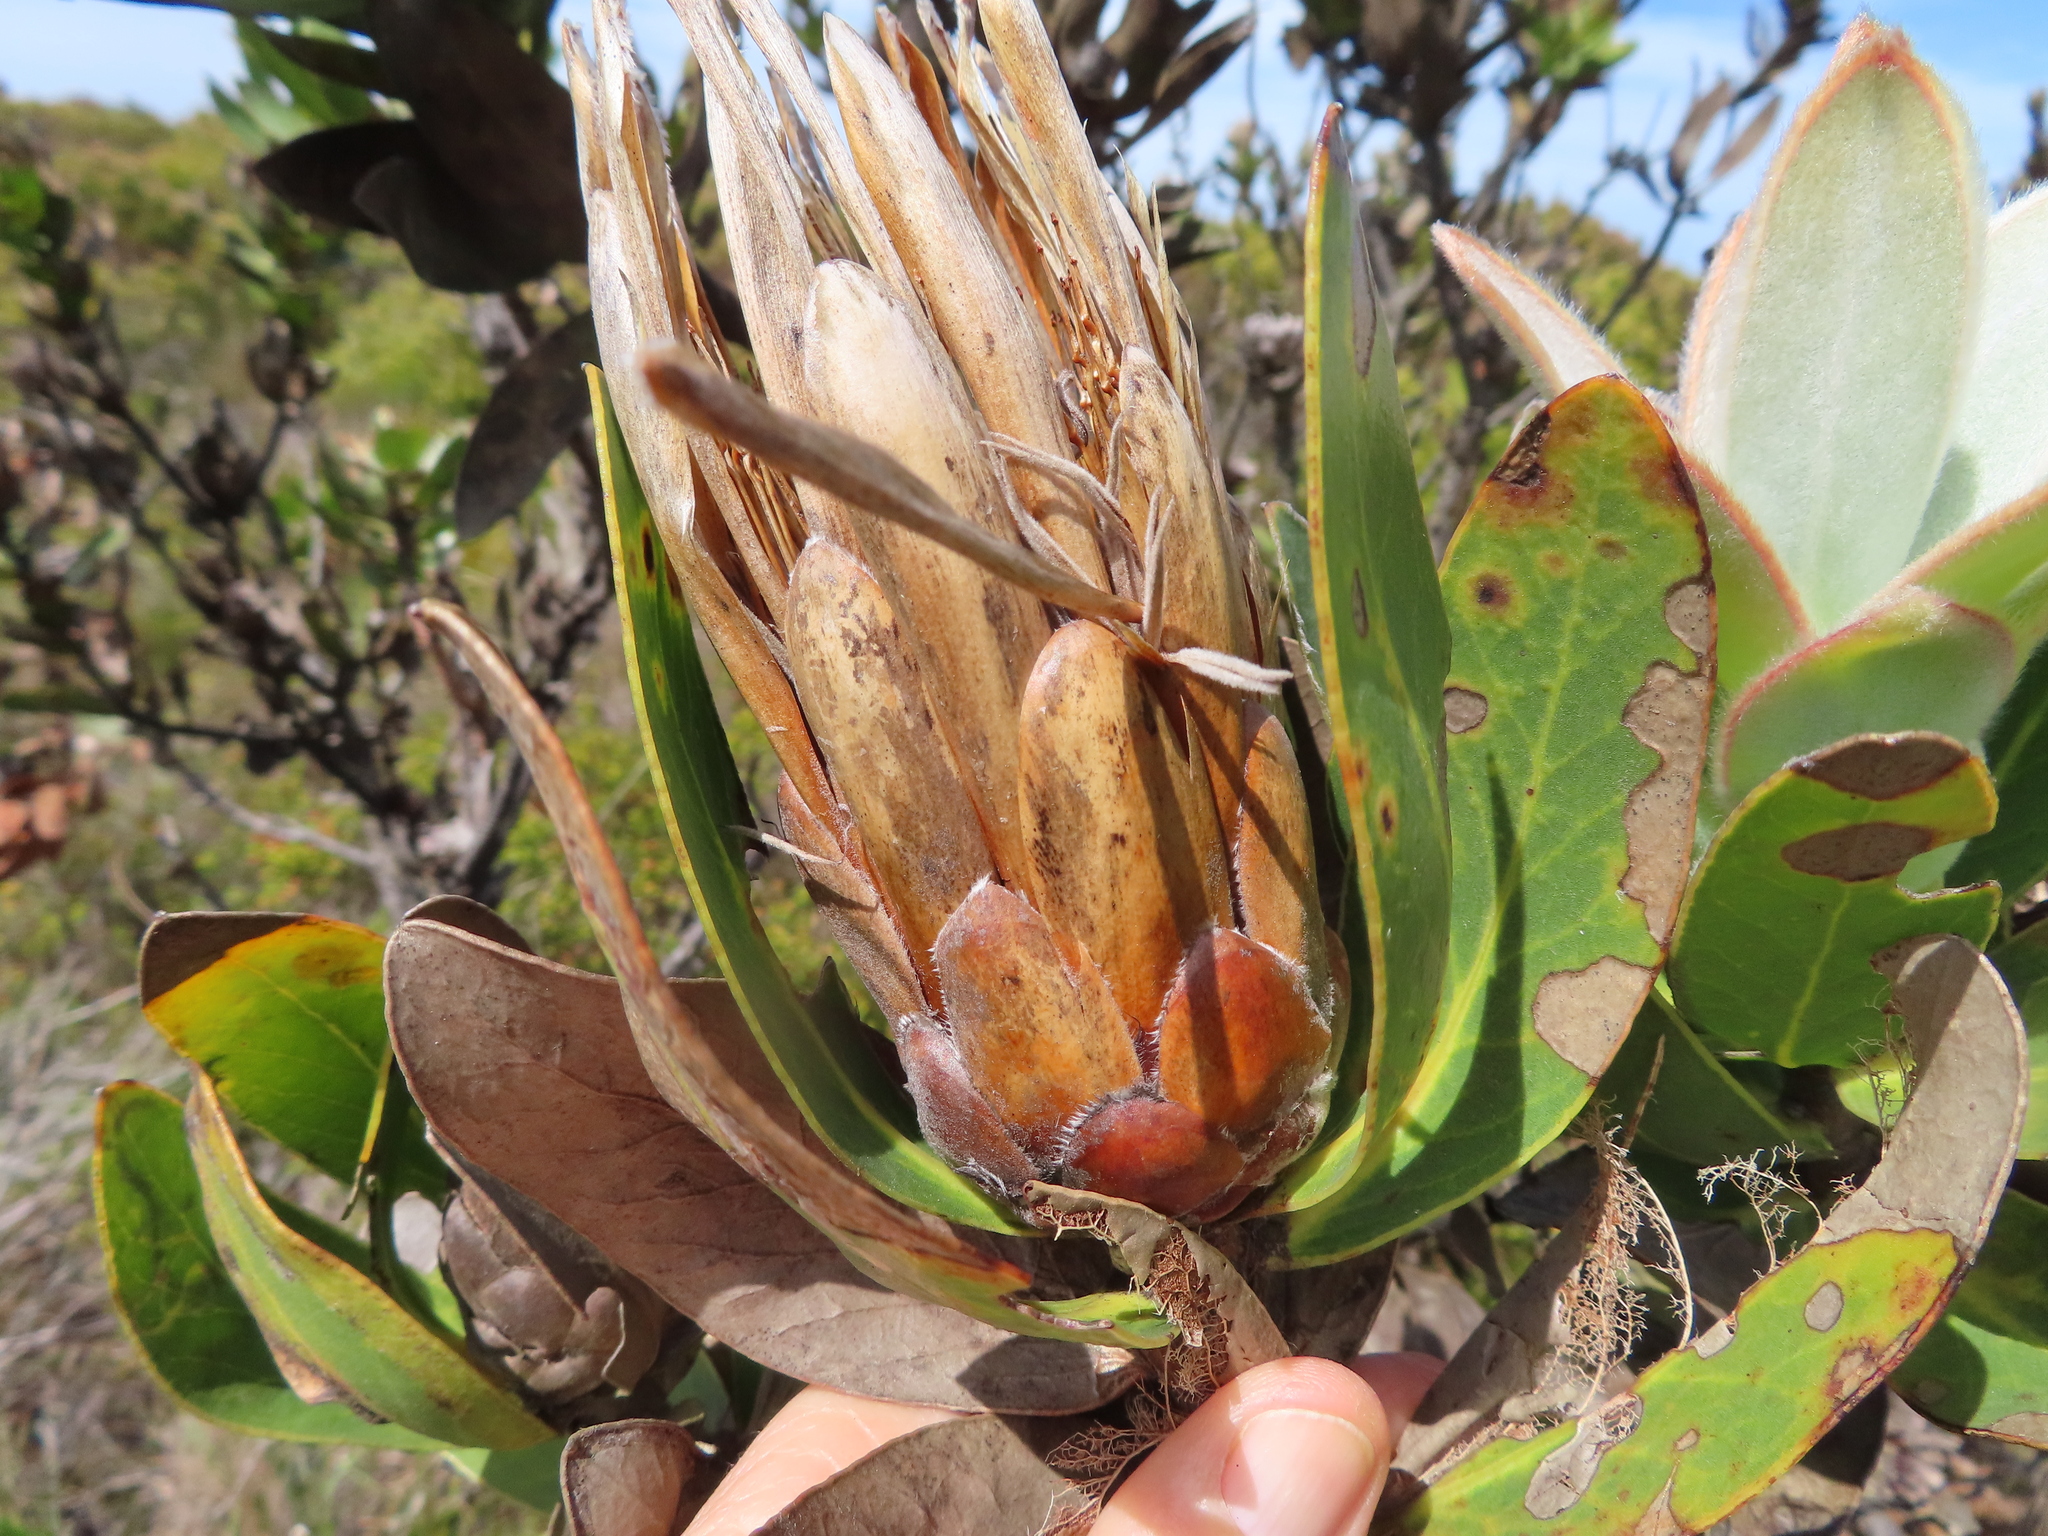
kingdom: Plantae
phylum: Tracheophyta
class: Magnoliopsida
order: Proteales
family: Proteaceae
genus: Protea
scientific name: Protea compacta
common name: Bot river protea
